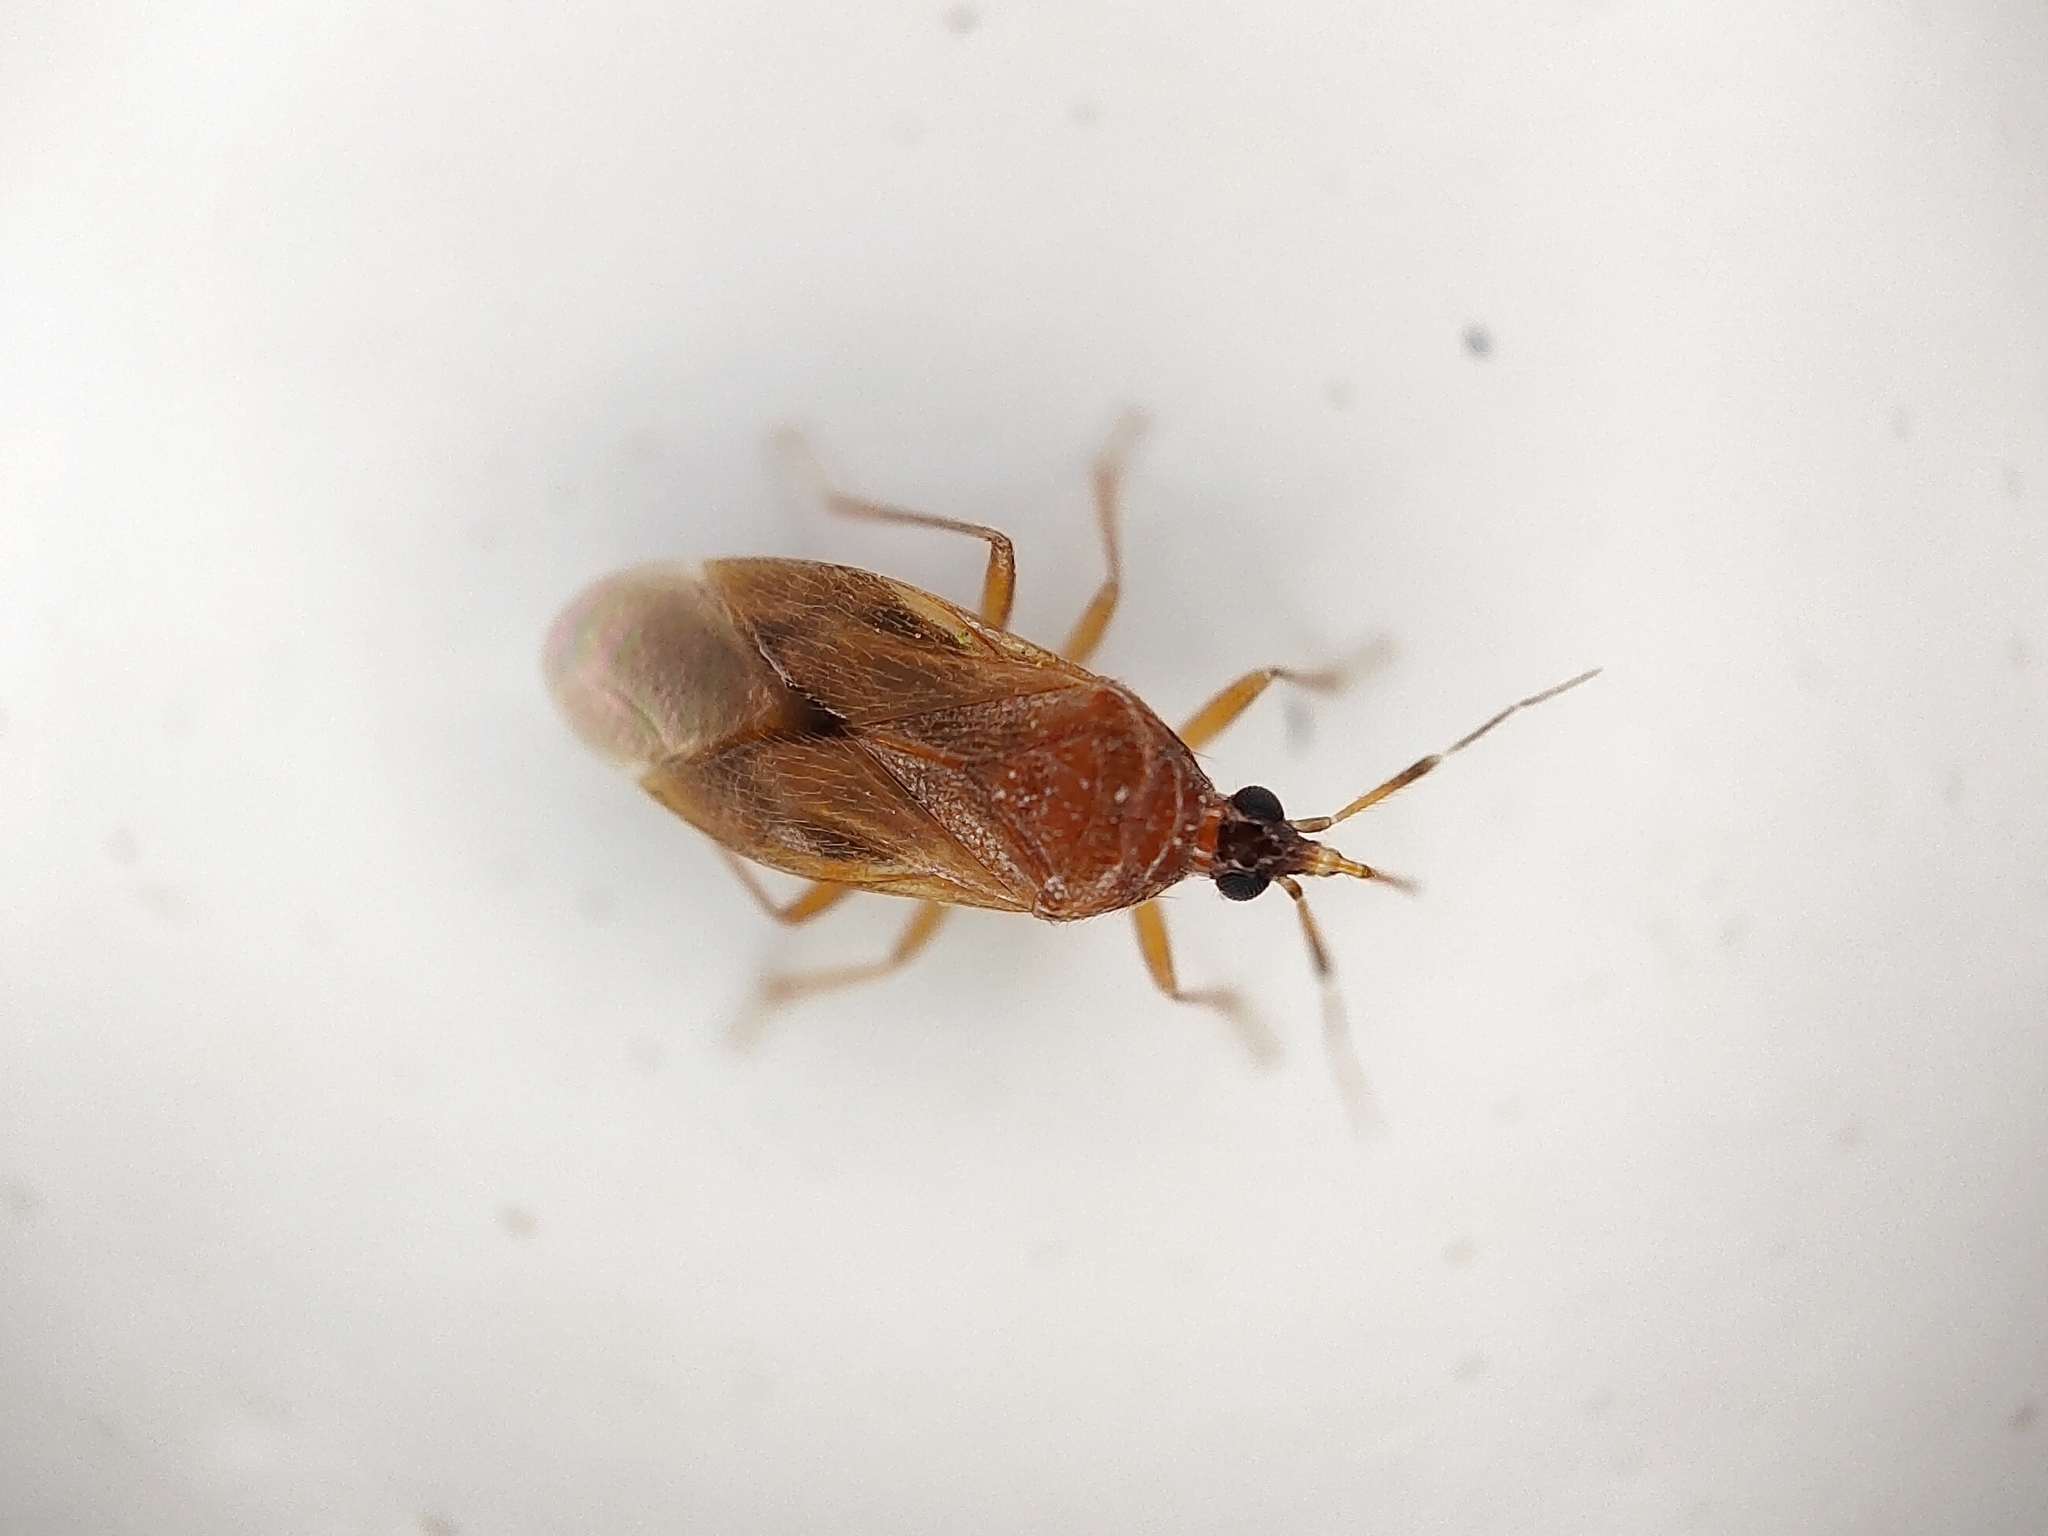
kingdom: Animalia
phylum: Arthropoda
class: Insecta
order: Hemiptera
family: Anthocoridae
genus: Amphiareus
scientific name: Amphiareus obscuriceps
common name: Minute pirate bug
